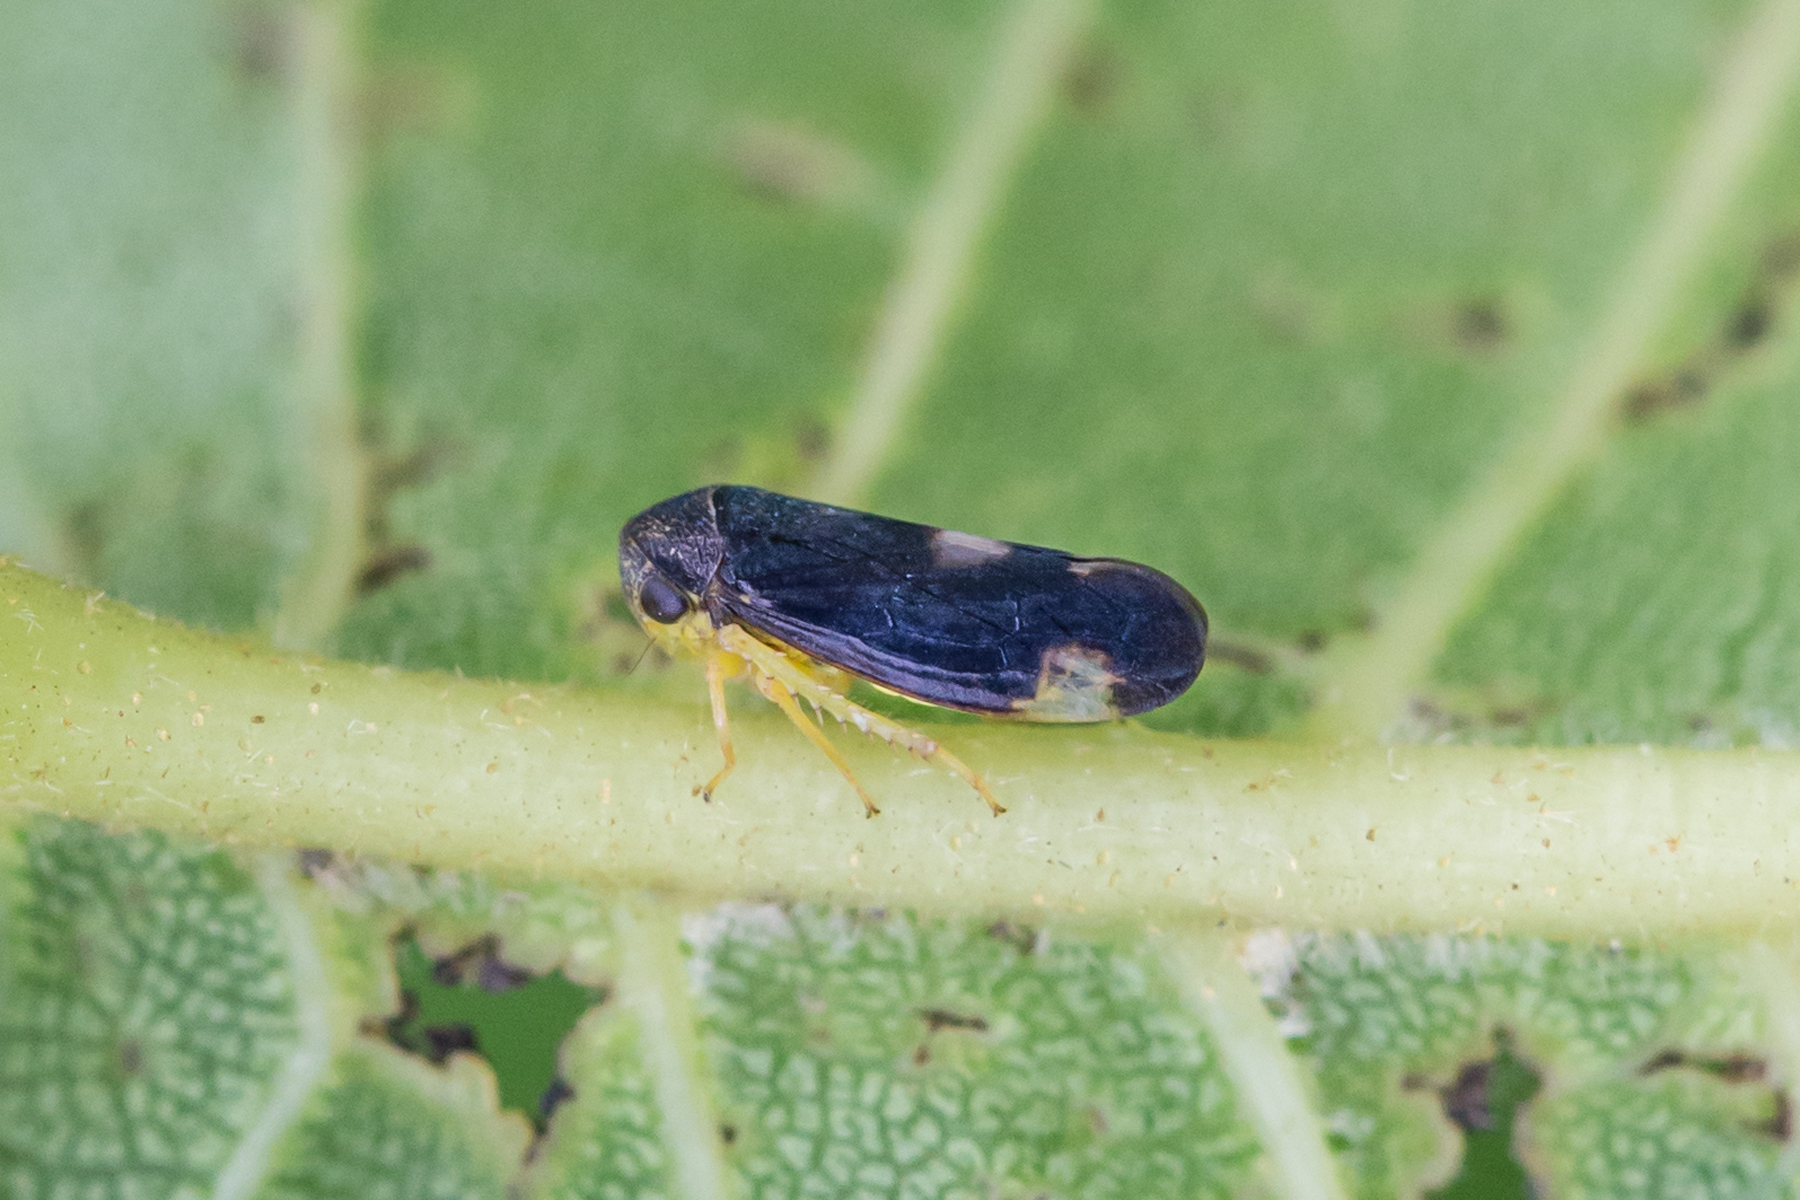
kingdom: Animalia
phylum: Arthropoda
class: Insecta
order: Hemiptera
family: Cicadellidae
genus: Pediopsoides
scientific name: Pediopsoides distinctus
